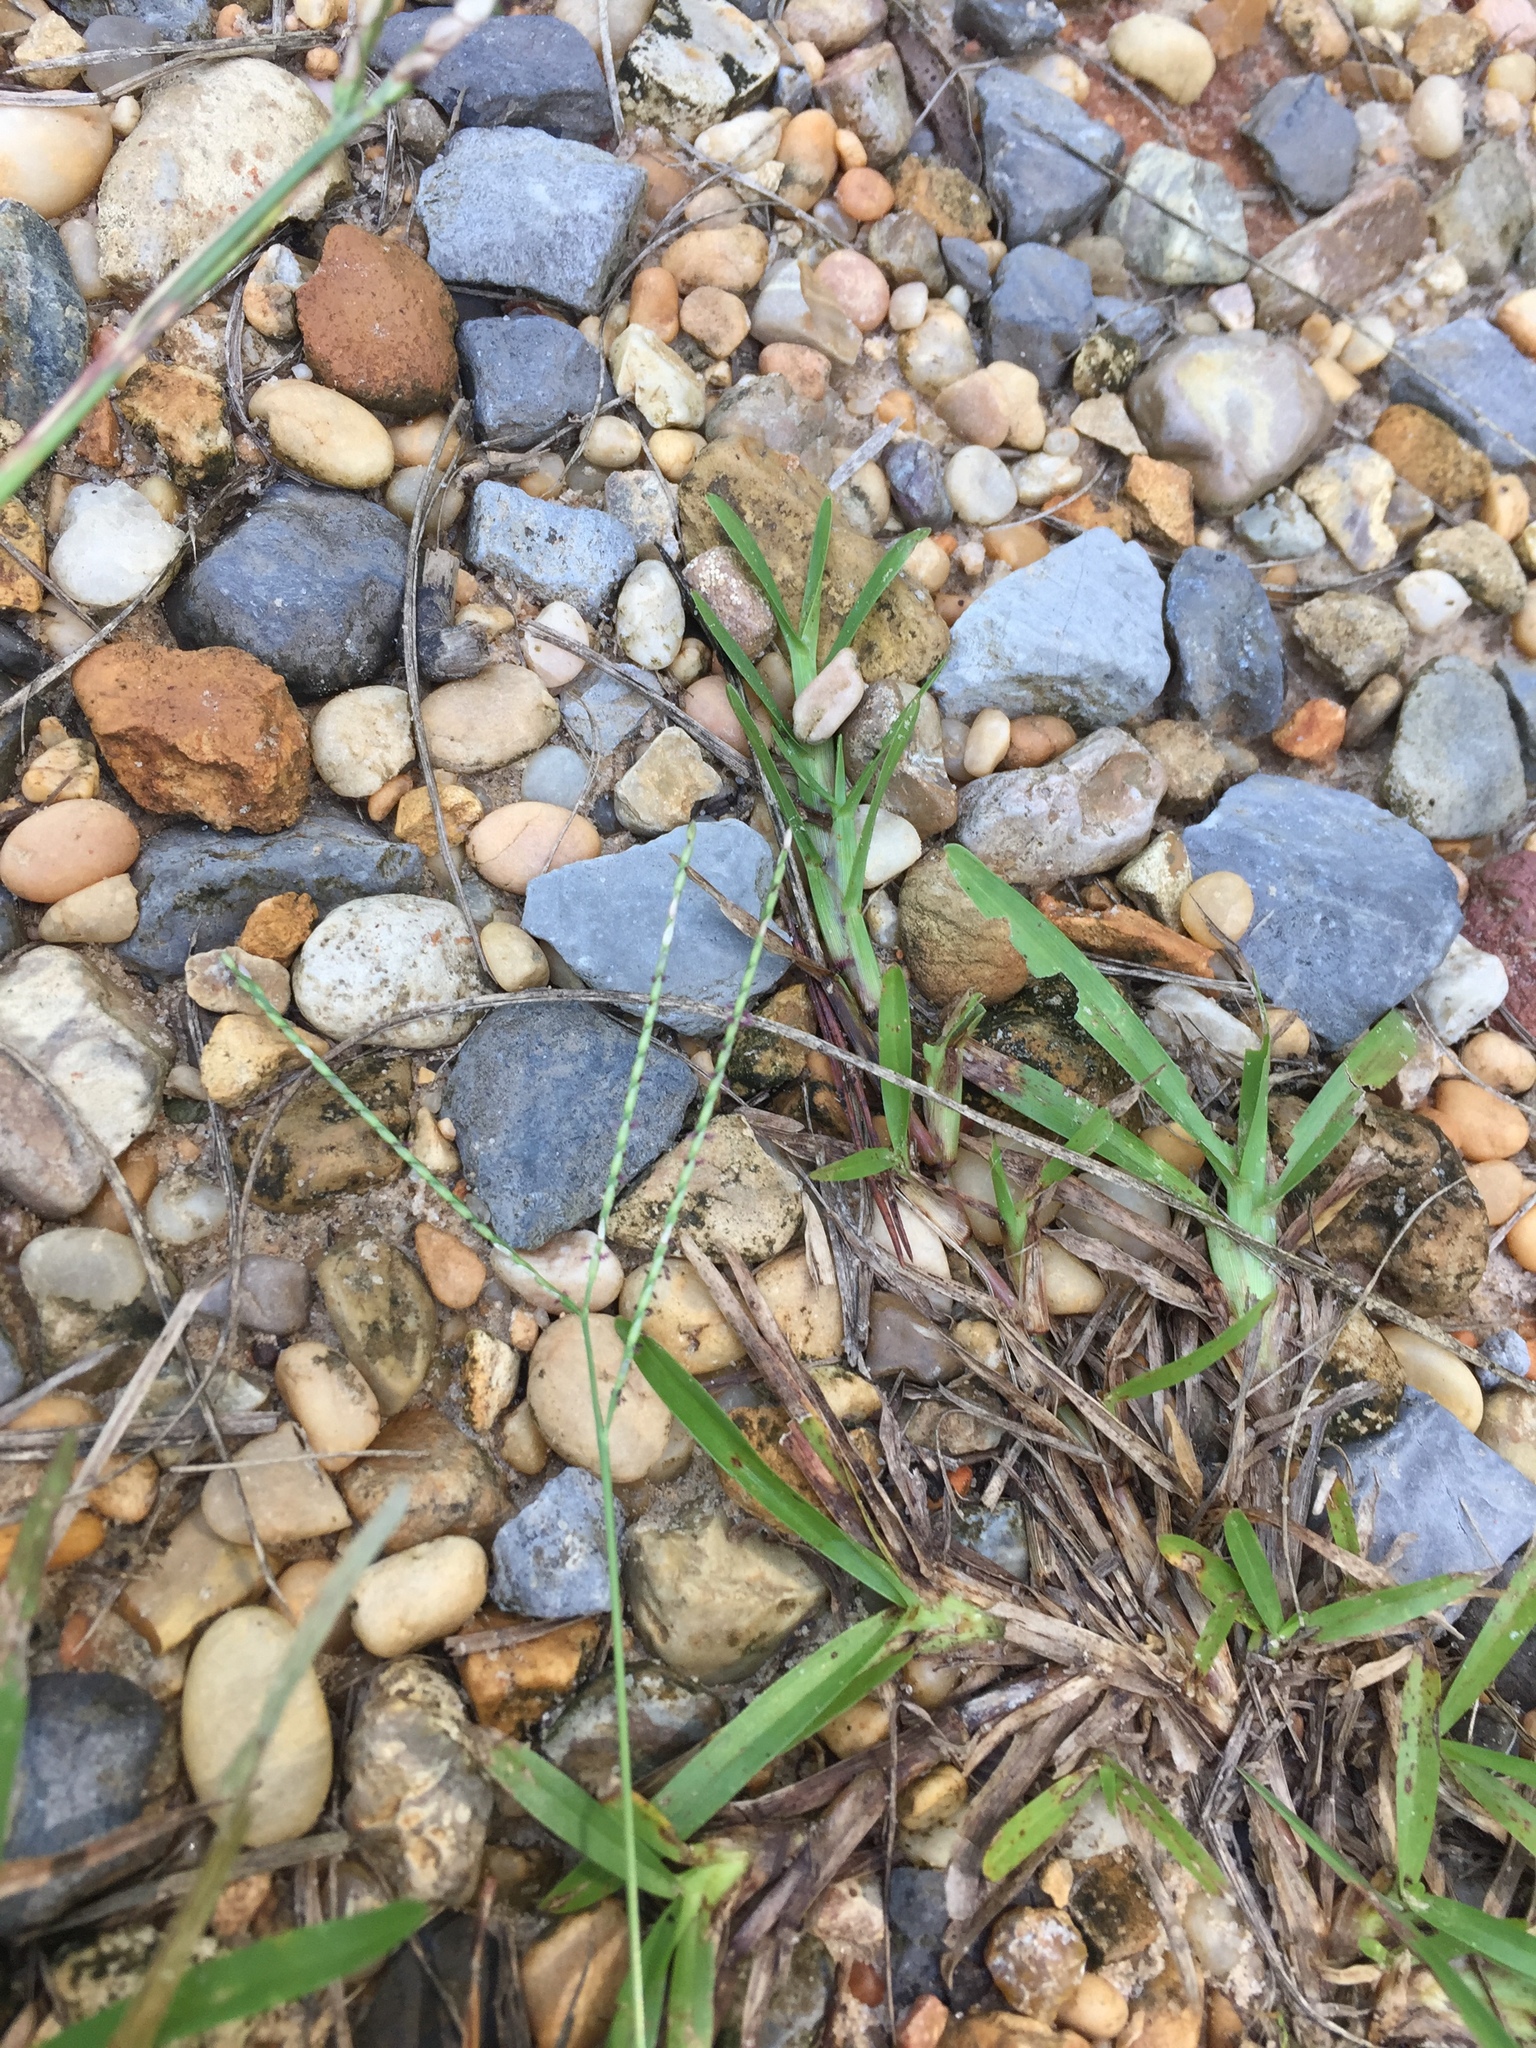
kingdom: Plantae
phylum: Tracheophyta
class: Liliopsida
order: Poales
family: Poaceae
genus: Axonopus
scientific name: Axonopus fissifolius
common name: Common carpetgrass
